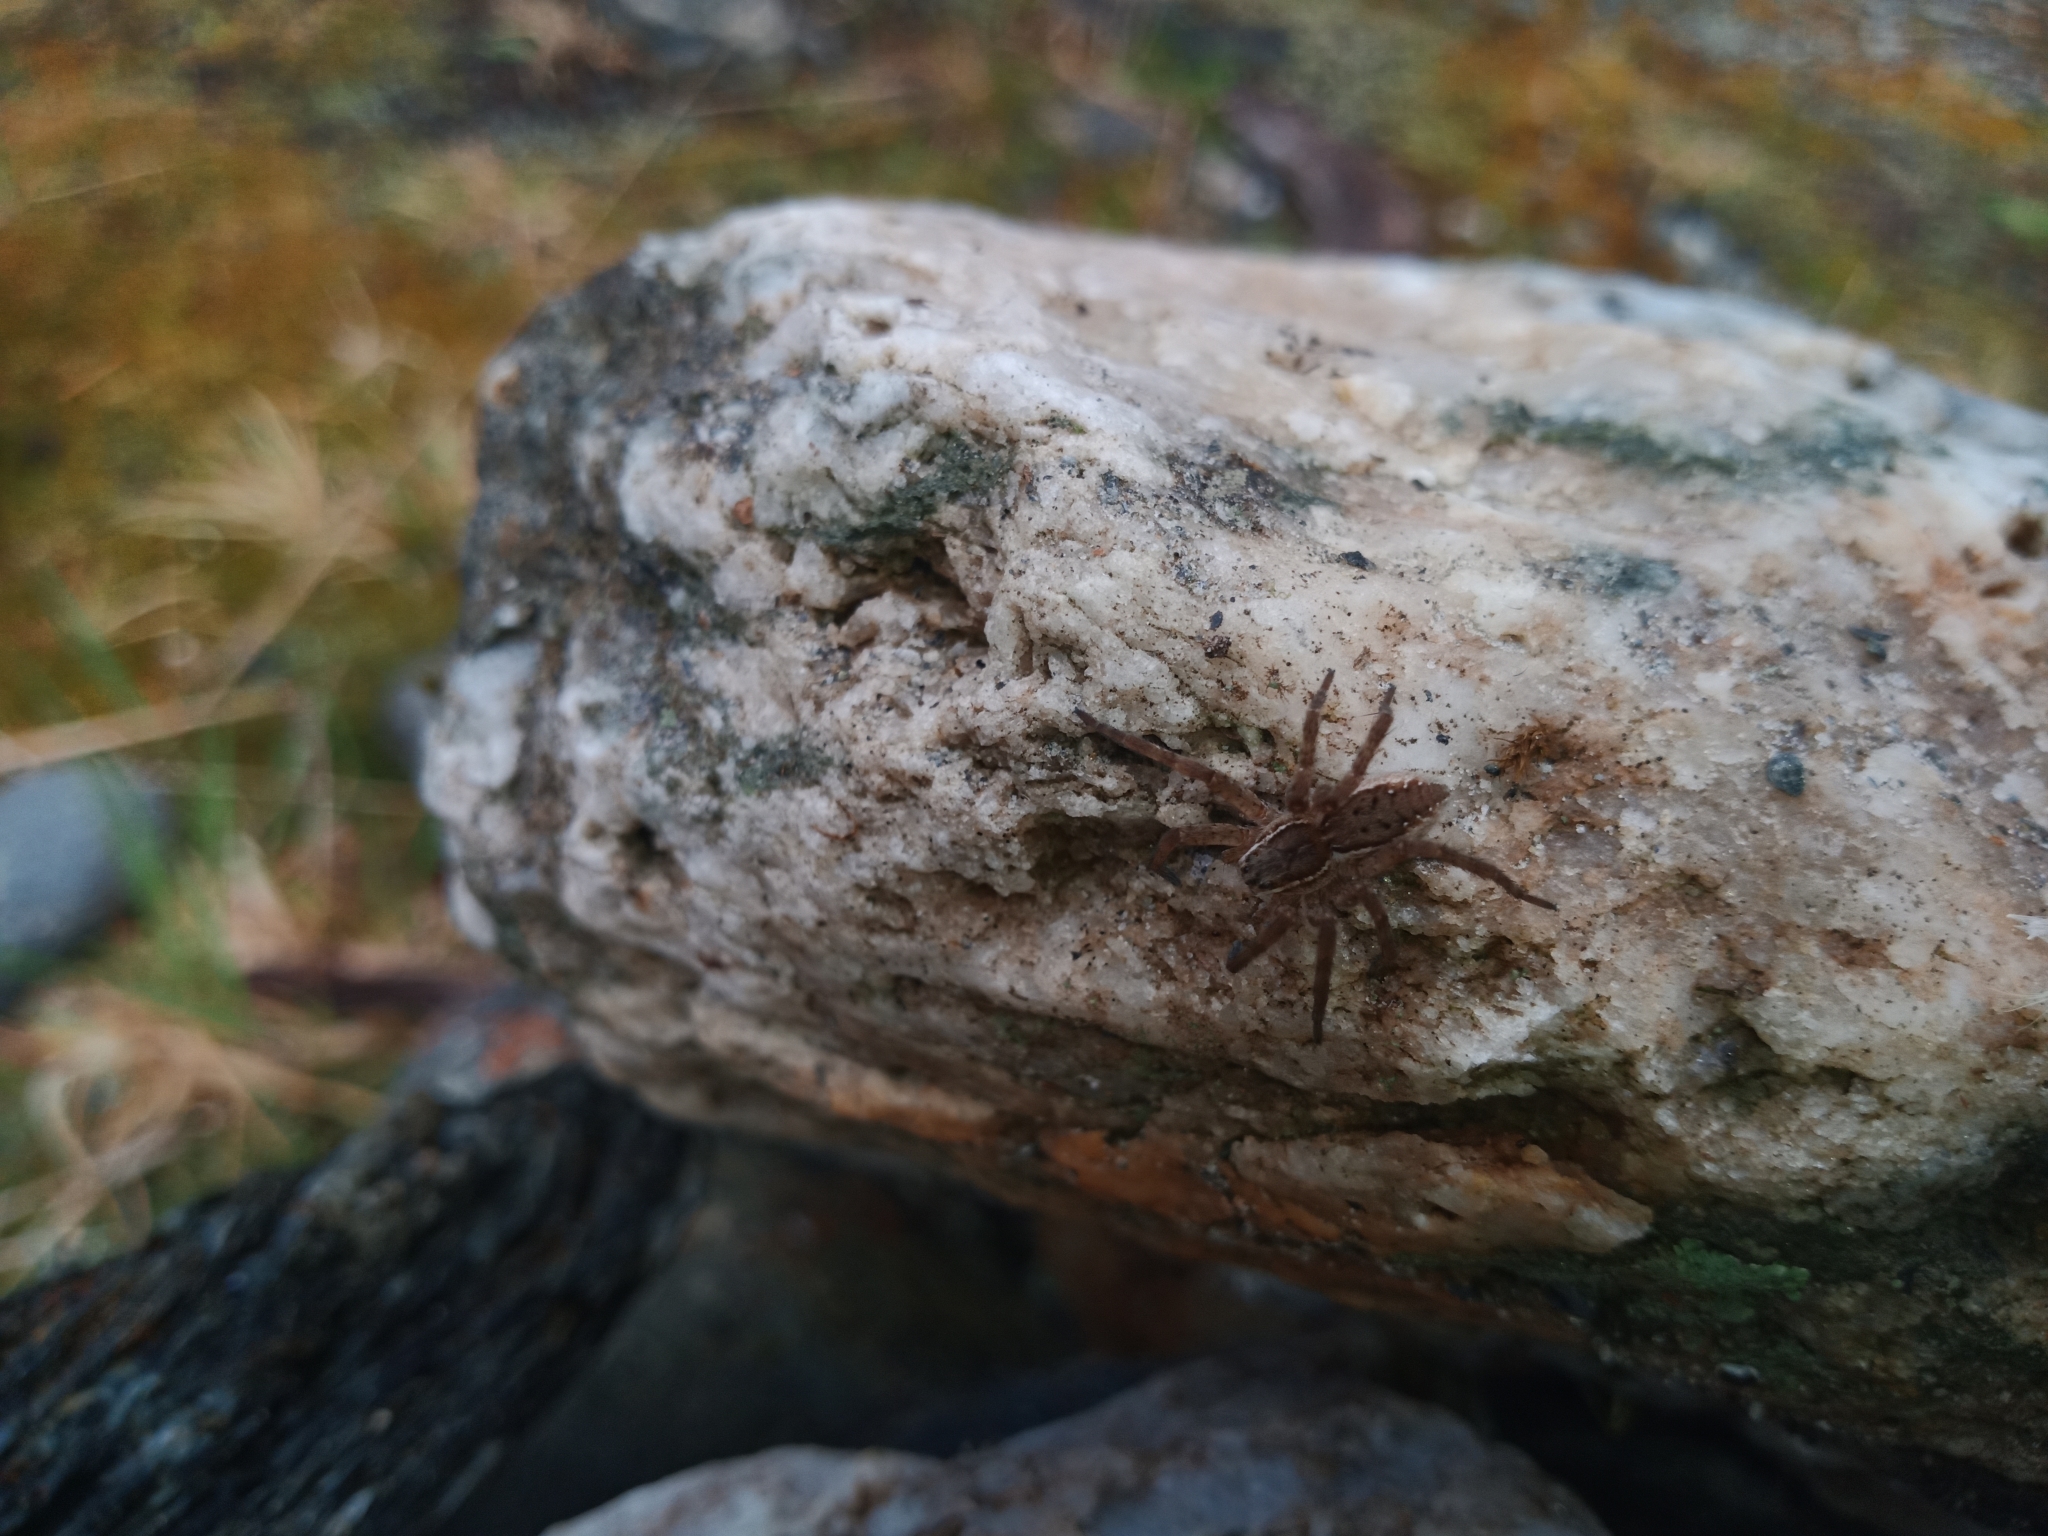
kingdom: Animalia
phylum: Arthropoda
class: Arachnida
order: Araneae
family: Pisauridae
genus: Dolomedes
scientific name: Dolomedes dondalei
